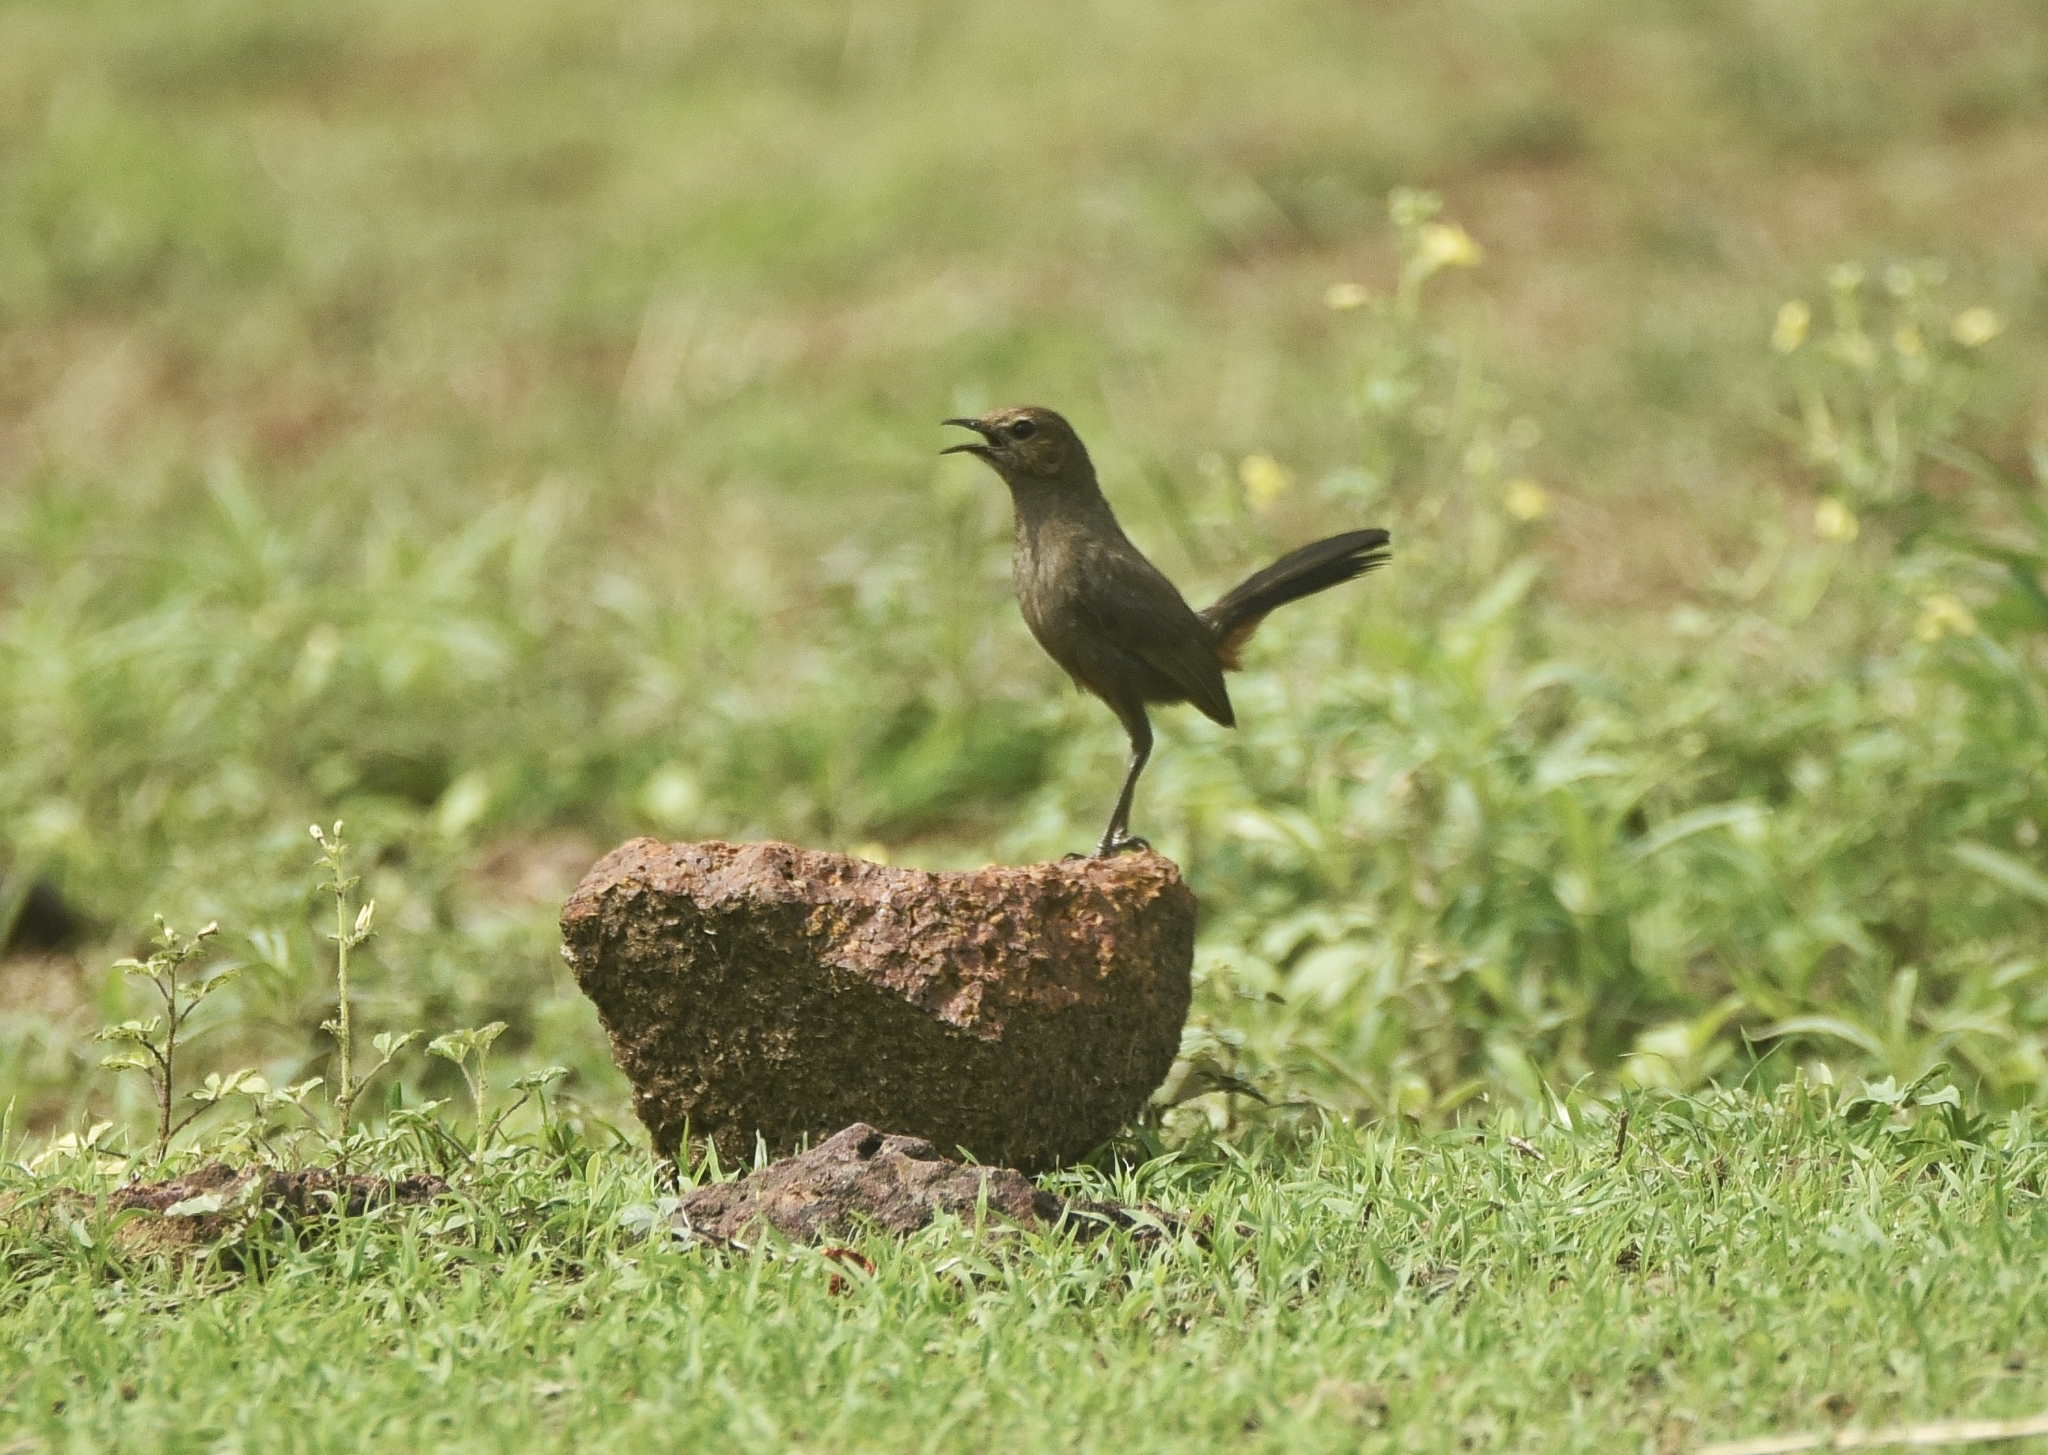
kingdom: Animalia
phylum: Chordata
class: Aves
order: Passeriformes
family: Muscicapidae
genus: Saxicoloides
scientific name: Saxicoloides fulicatus
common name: Indian robin
